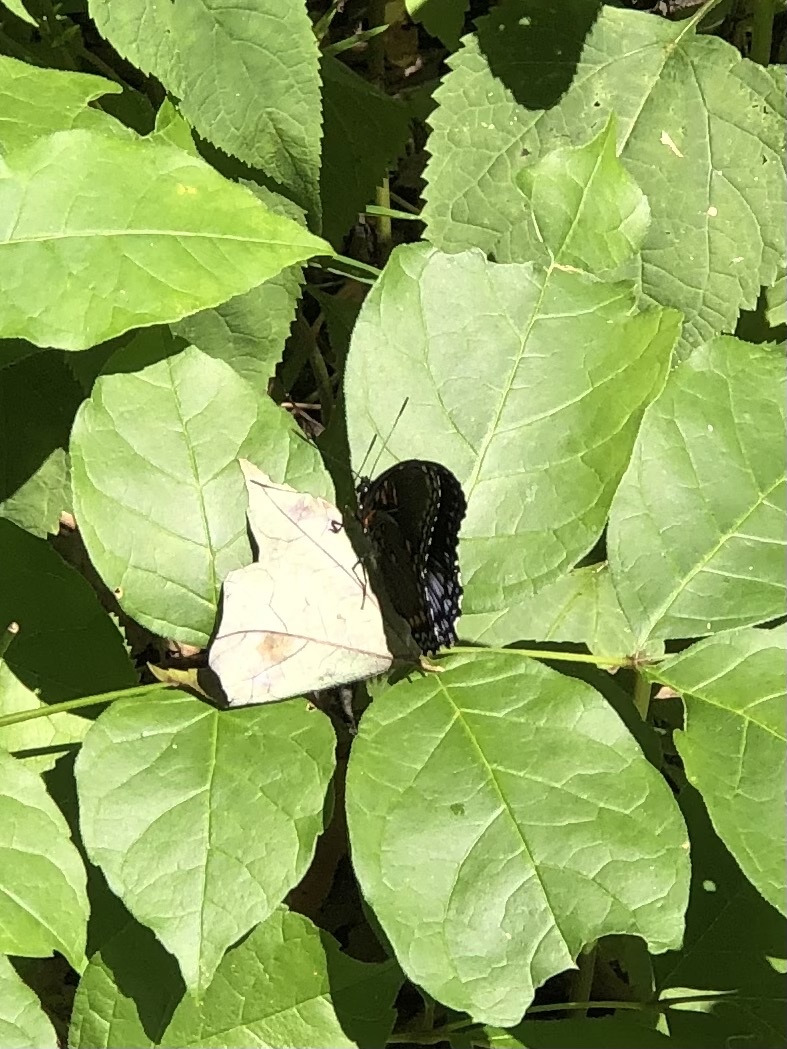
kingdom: Animalia
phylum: Arthropoda
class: Insecta
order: Lepidoptera
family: Nymphalidae
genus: Limenitis
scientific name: Limenitis arthemis
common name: Red-spotted admiral
